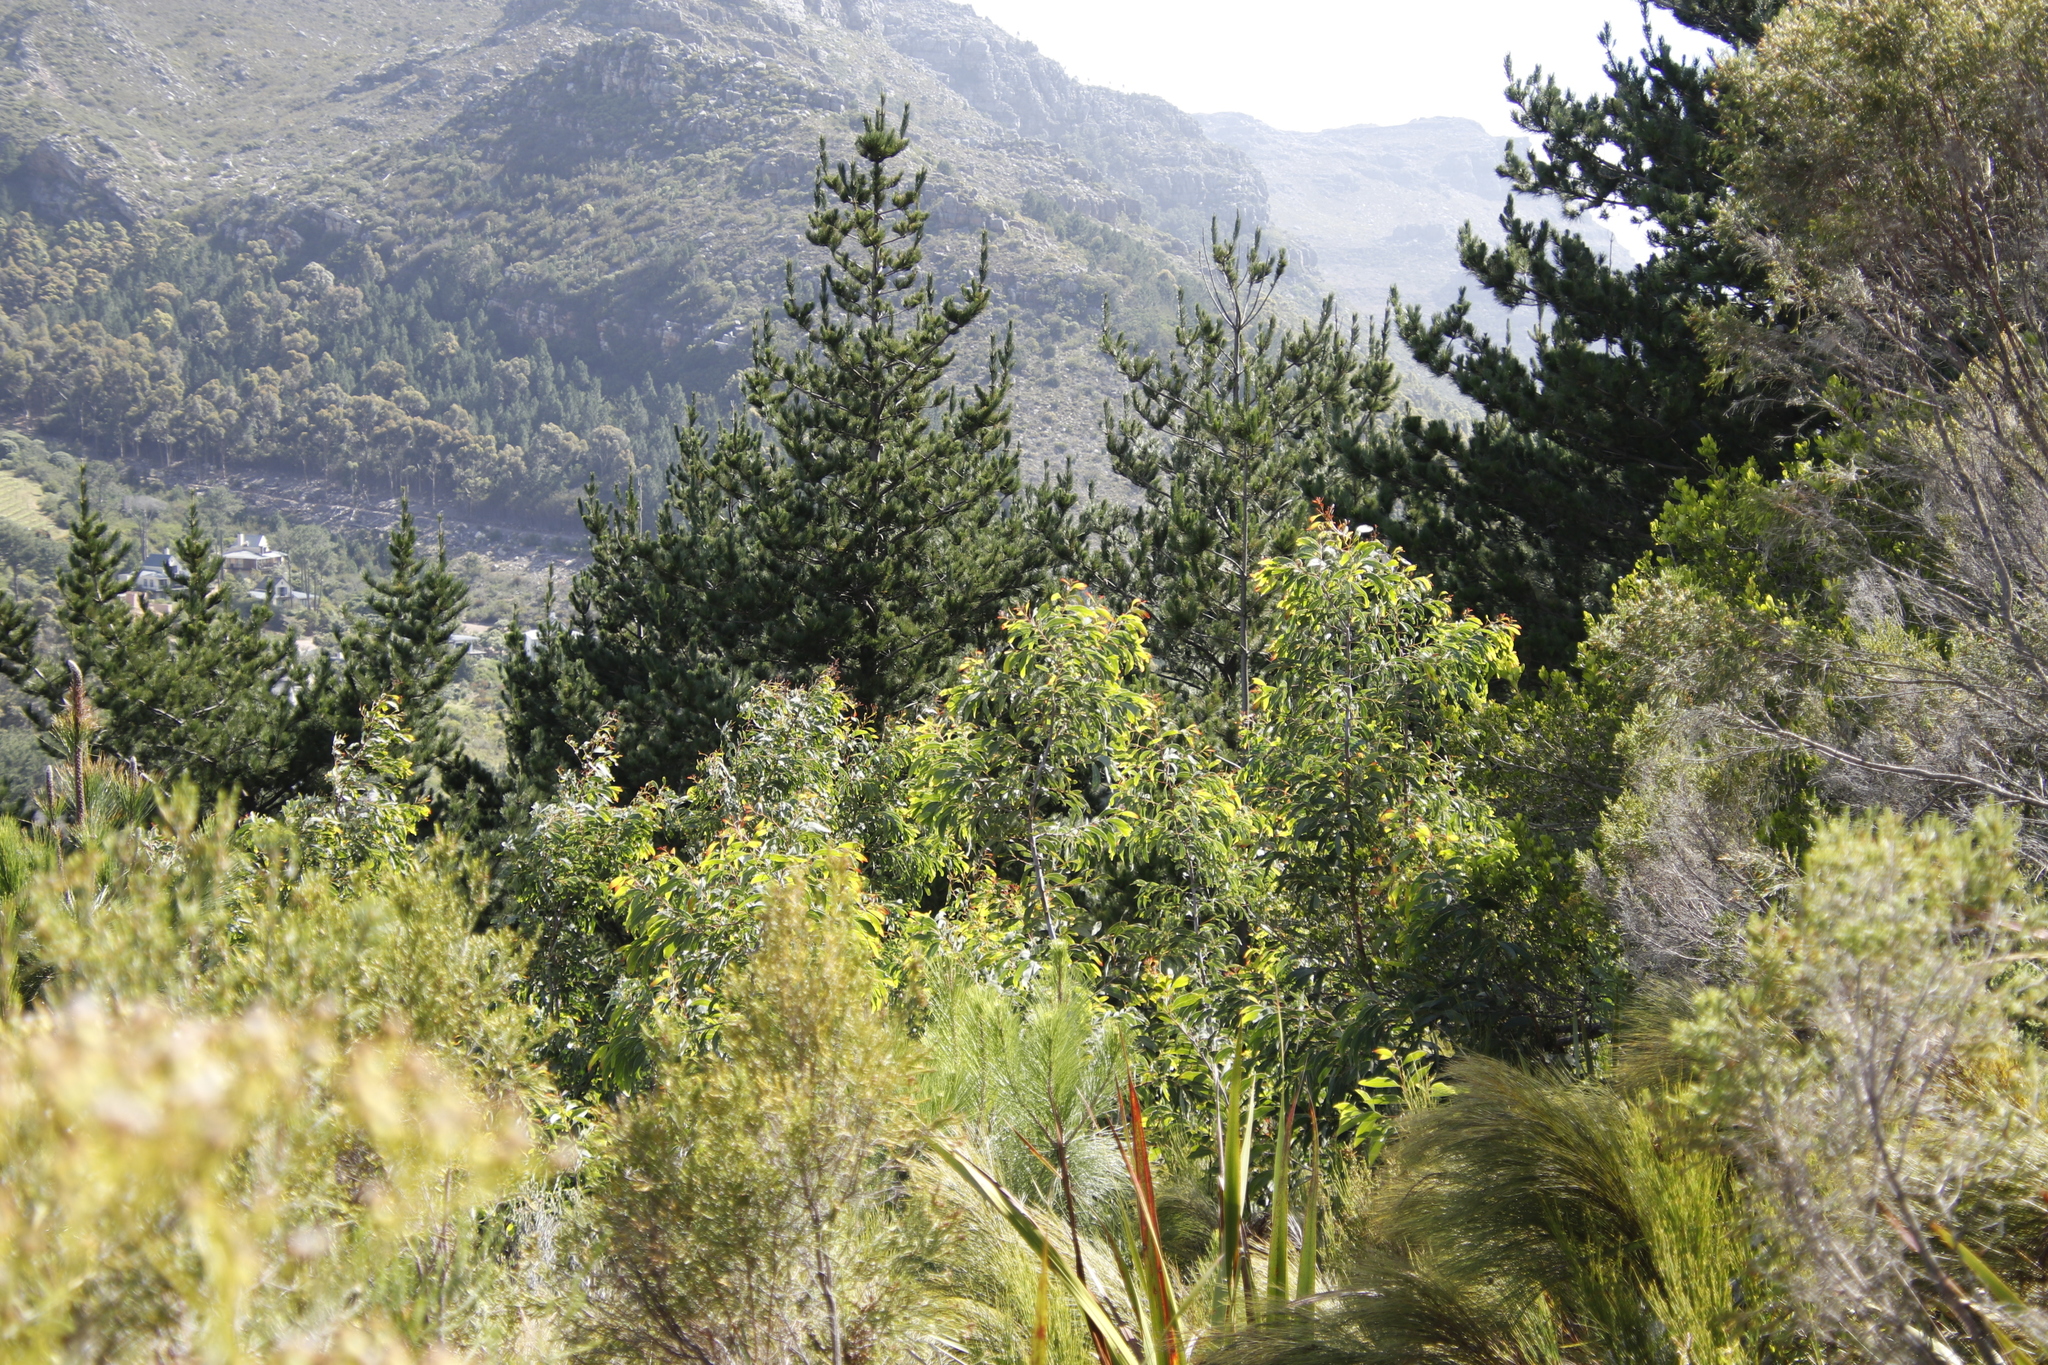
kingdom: Plantae
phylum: Tracheophyta
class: Pinopsida
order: Pinales
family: Pinaceae
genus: Pinus
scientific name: Pinus radiata
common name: Monterey pine
